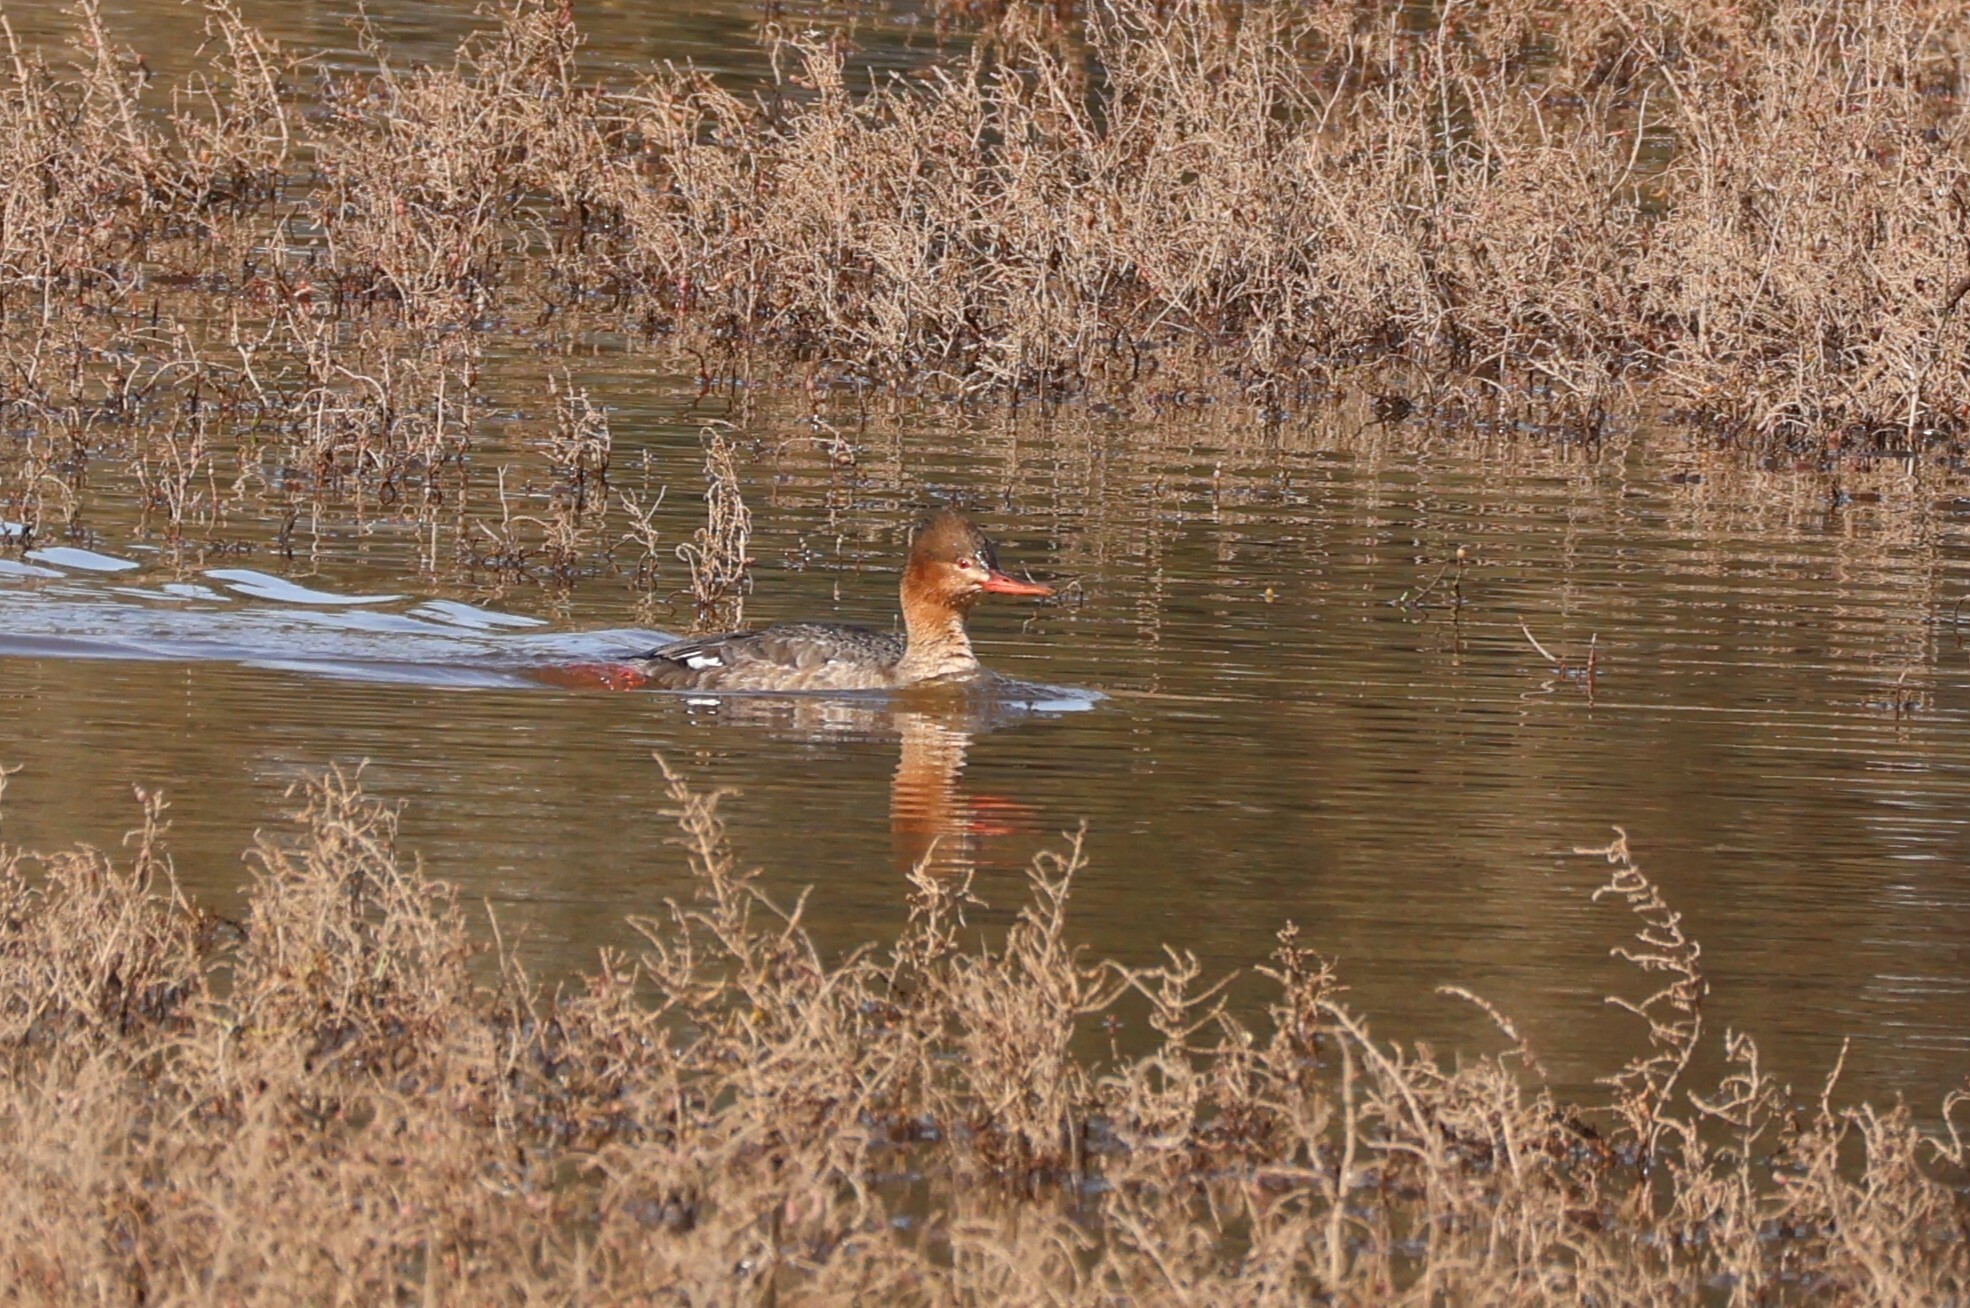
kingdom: Animalia
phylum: Chordata
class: Aves
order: Anseriformes
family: Anatidae
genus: Mergus
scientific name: Mergus serrator
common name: Red-breasted merganser
